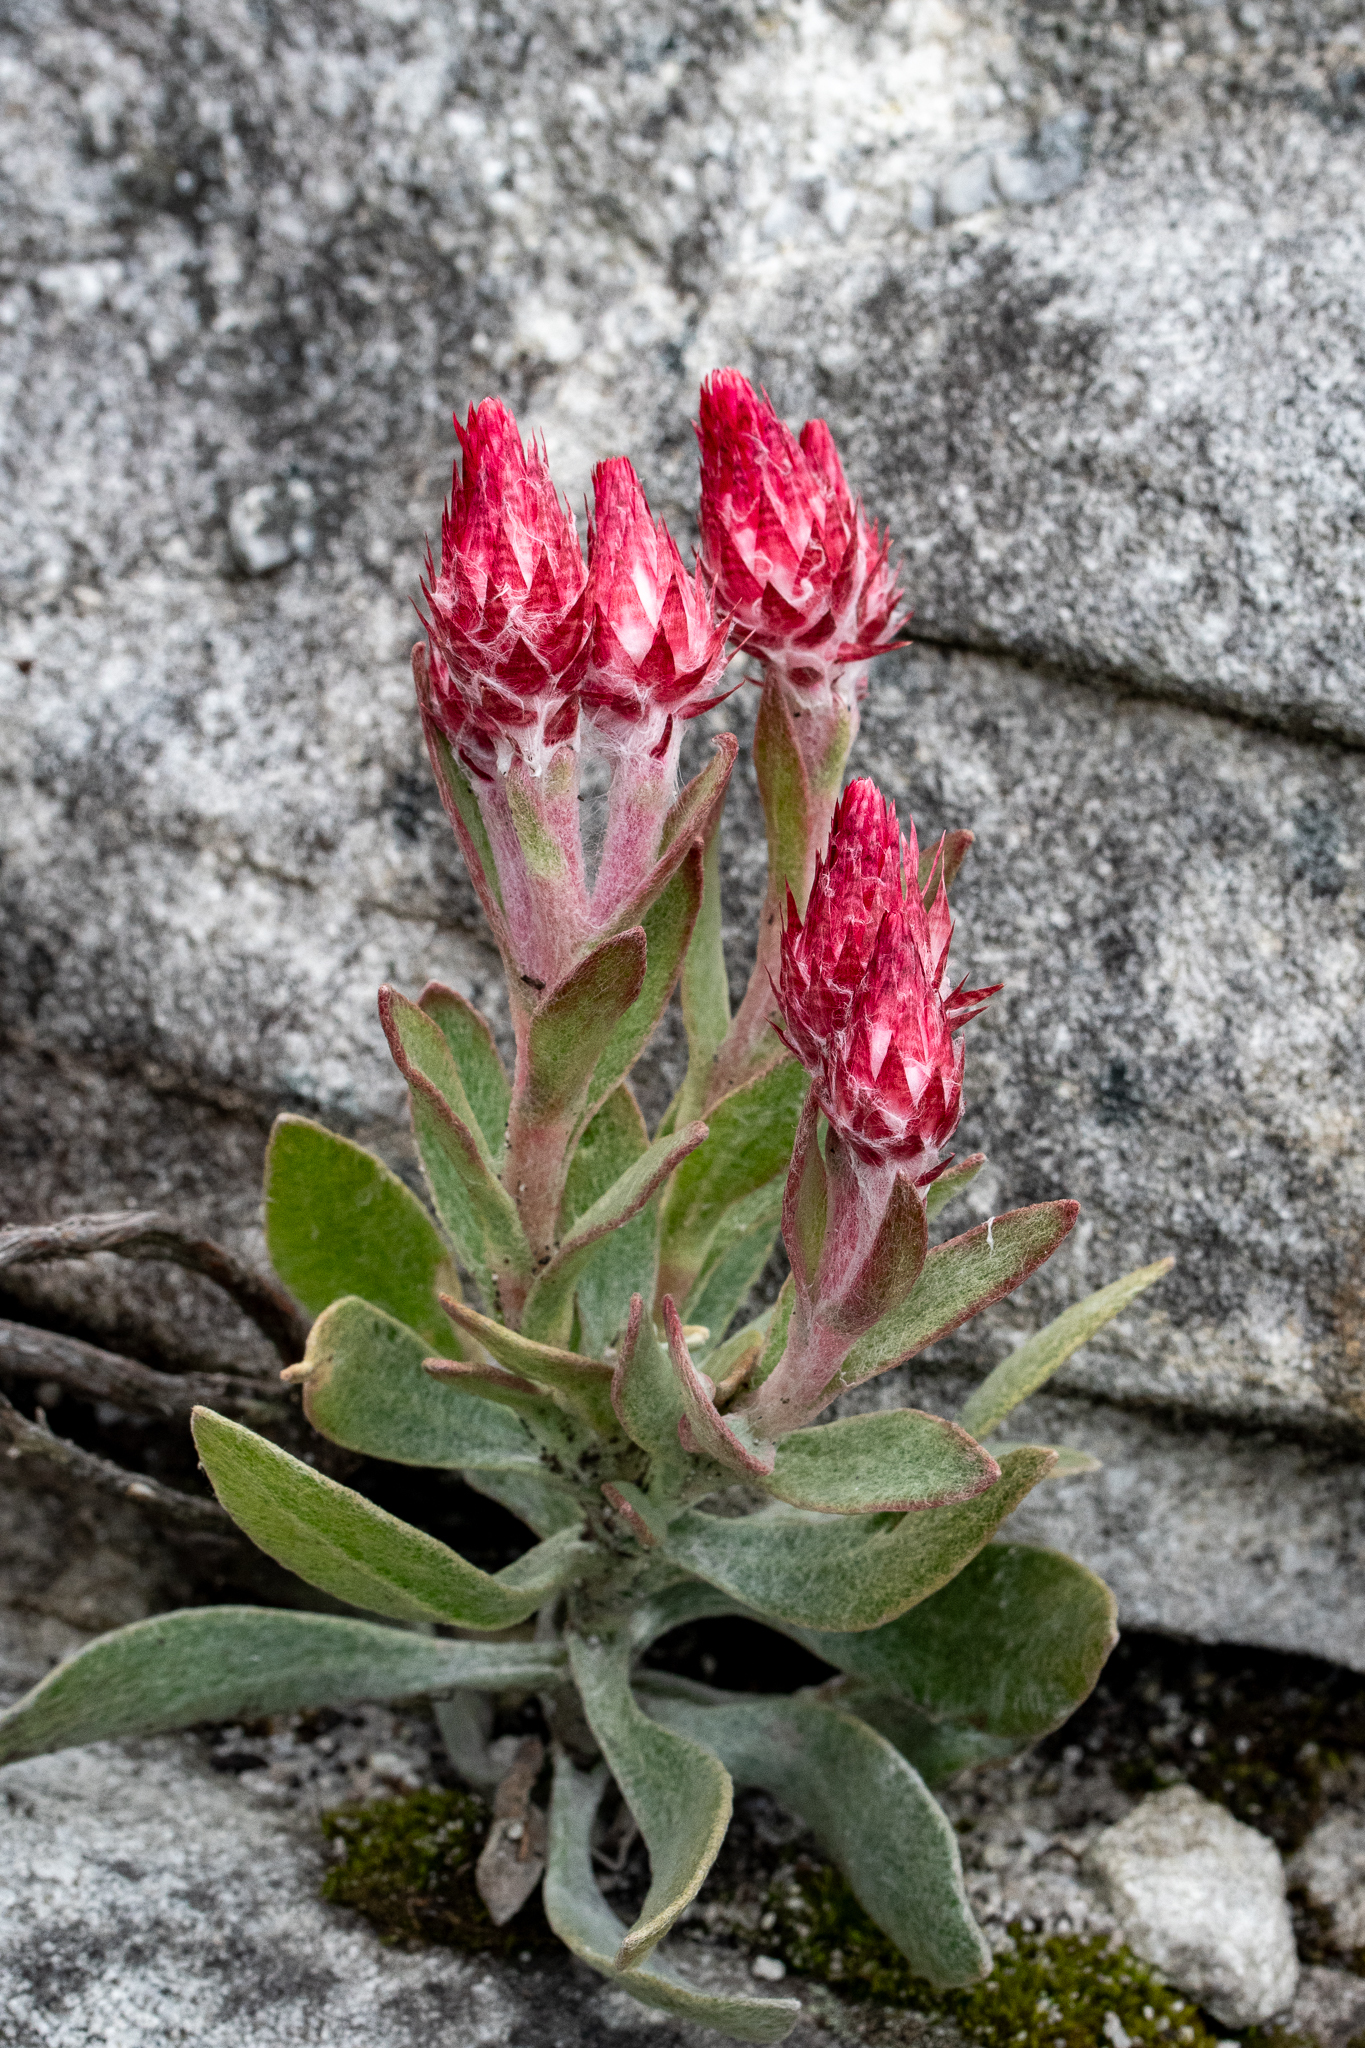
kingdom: Plantae
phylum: Tracheophyta
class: Magnoliopsida
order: Asterales
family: Asteraceae
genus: Syncarpha
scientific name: Syncarpha zeyheri
